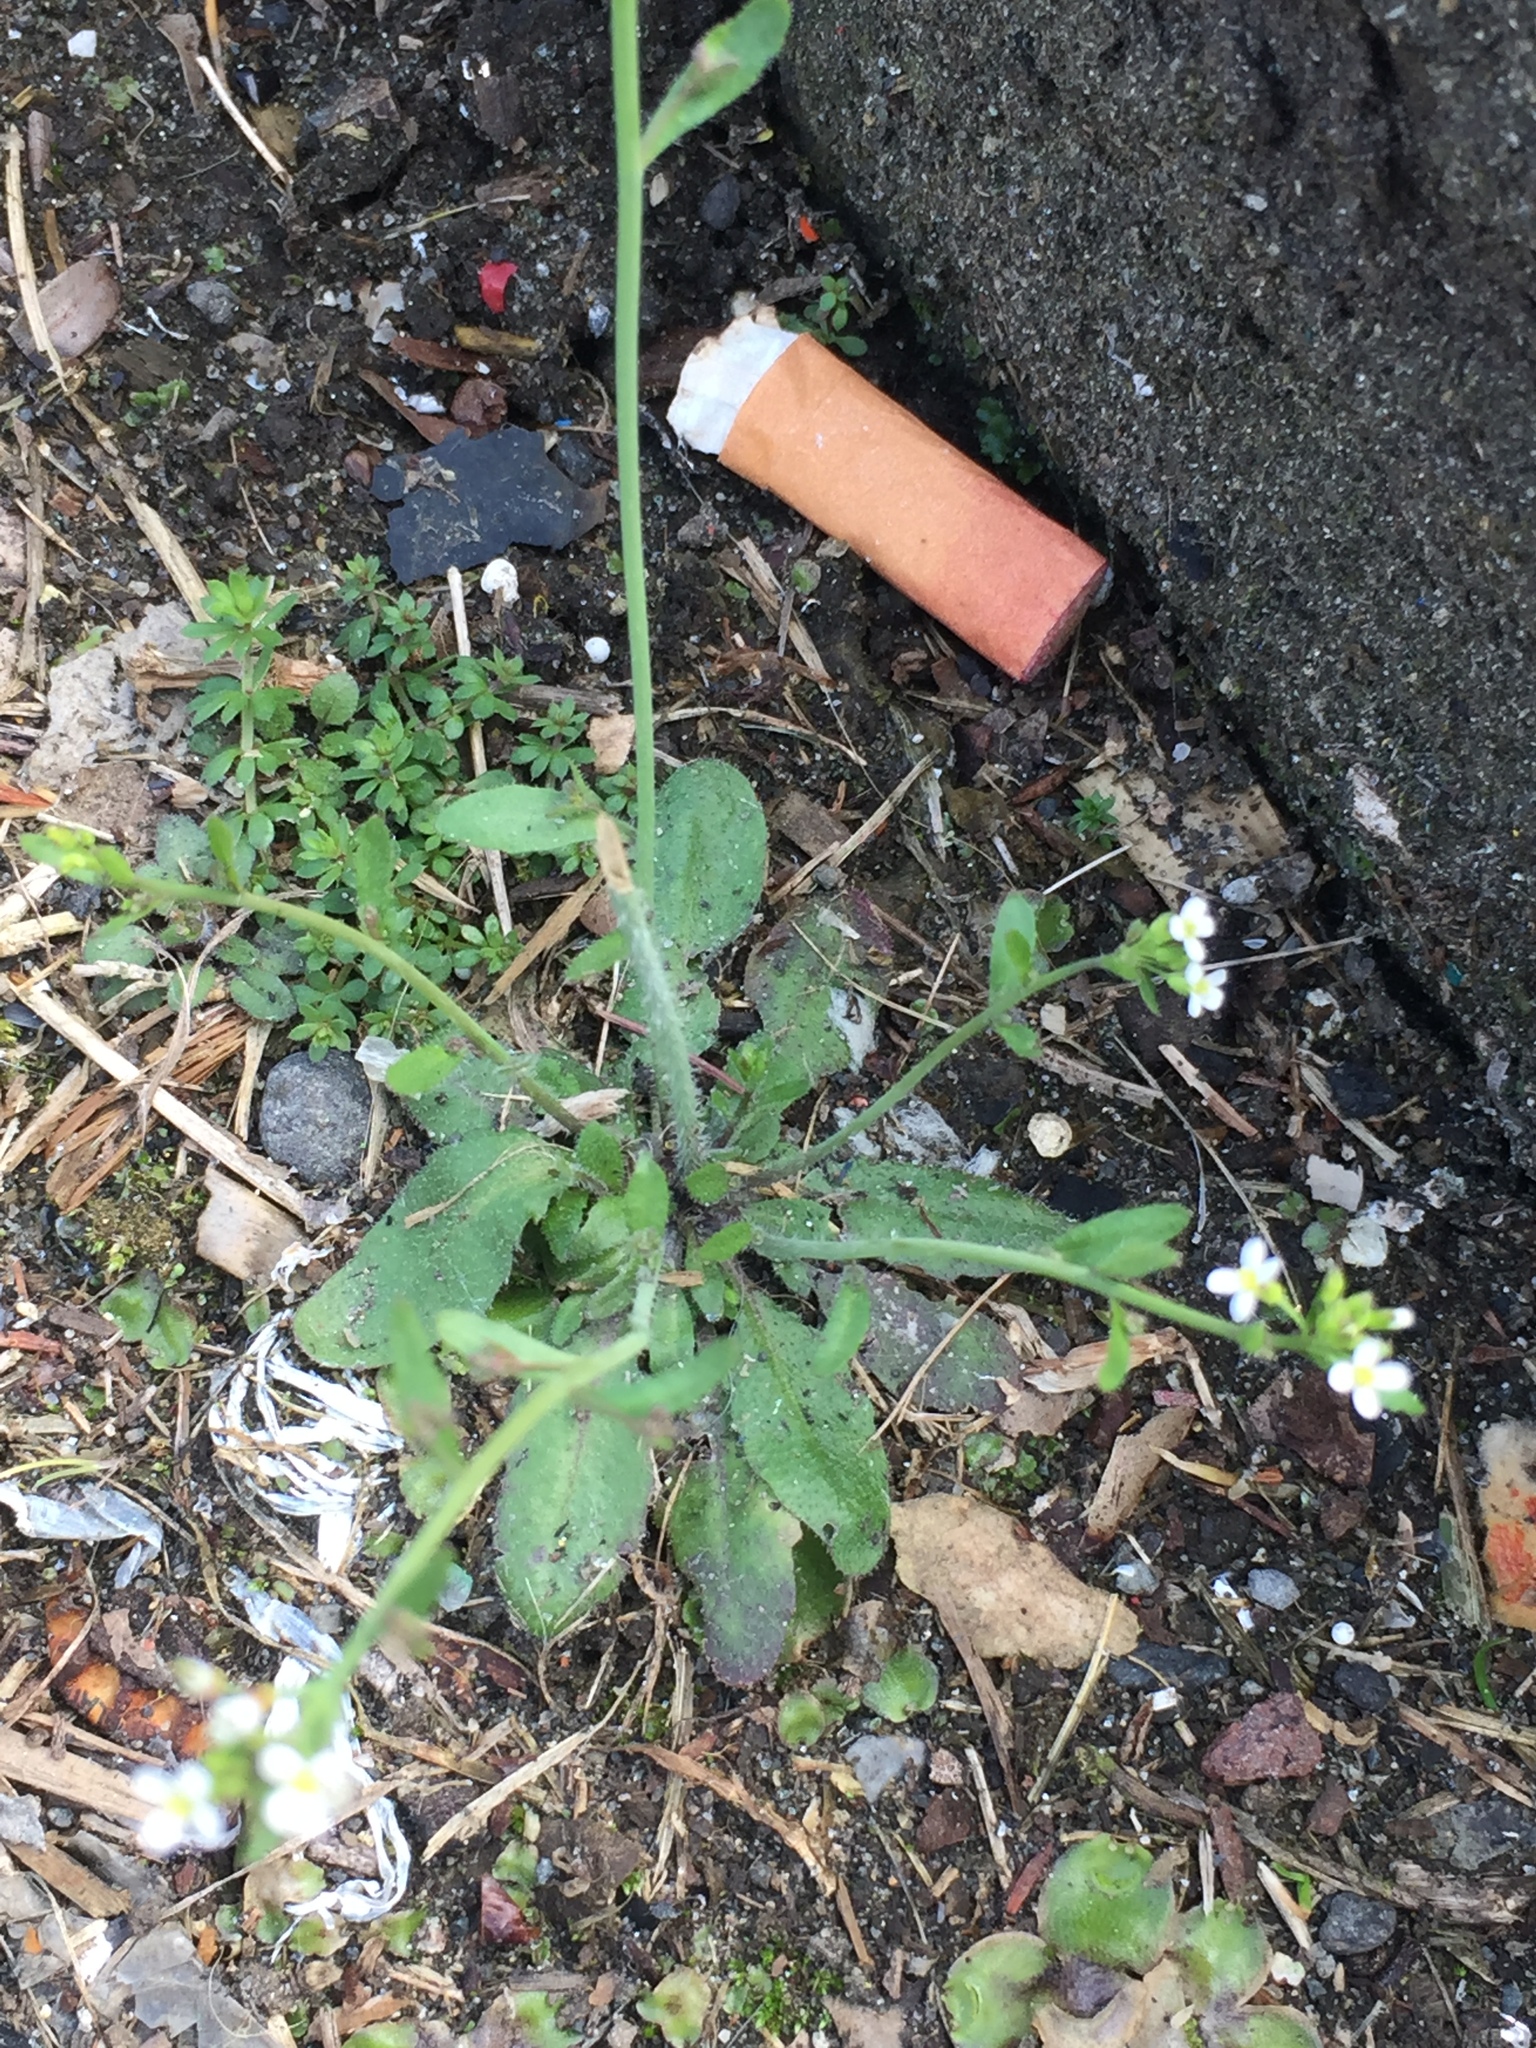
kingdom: Plantae
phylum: Tracheophyta
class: Magnoliopsida
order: Brassicales
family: Brassicaceae
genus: Arabidopsis
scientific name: Arabidopsis thaliana
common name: Thale cress
